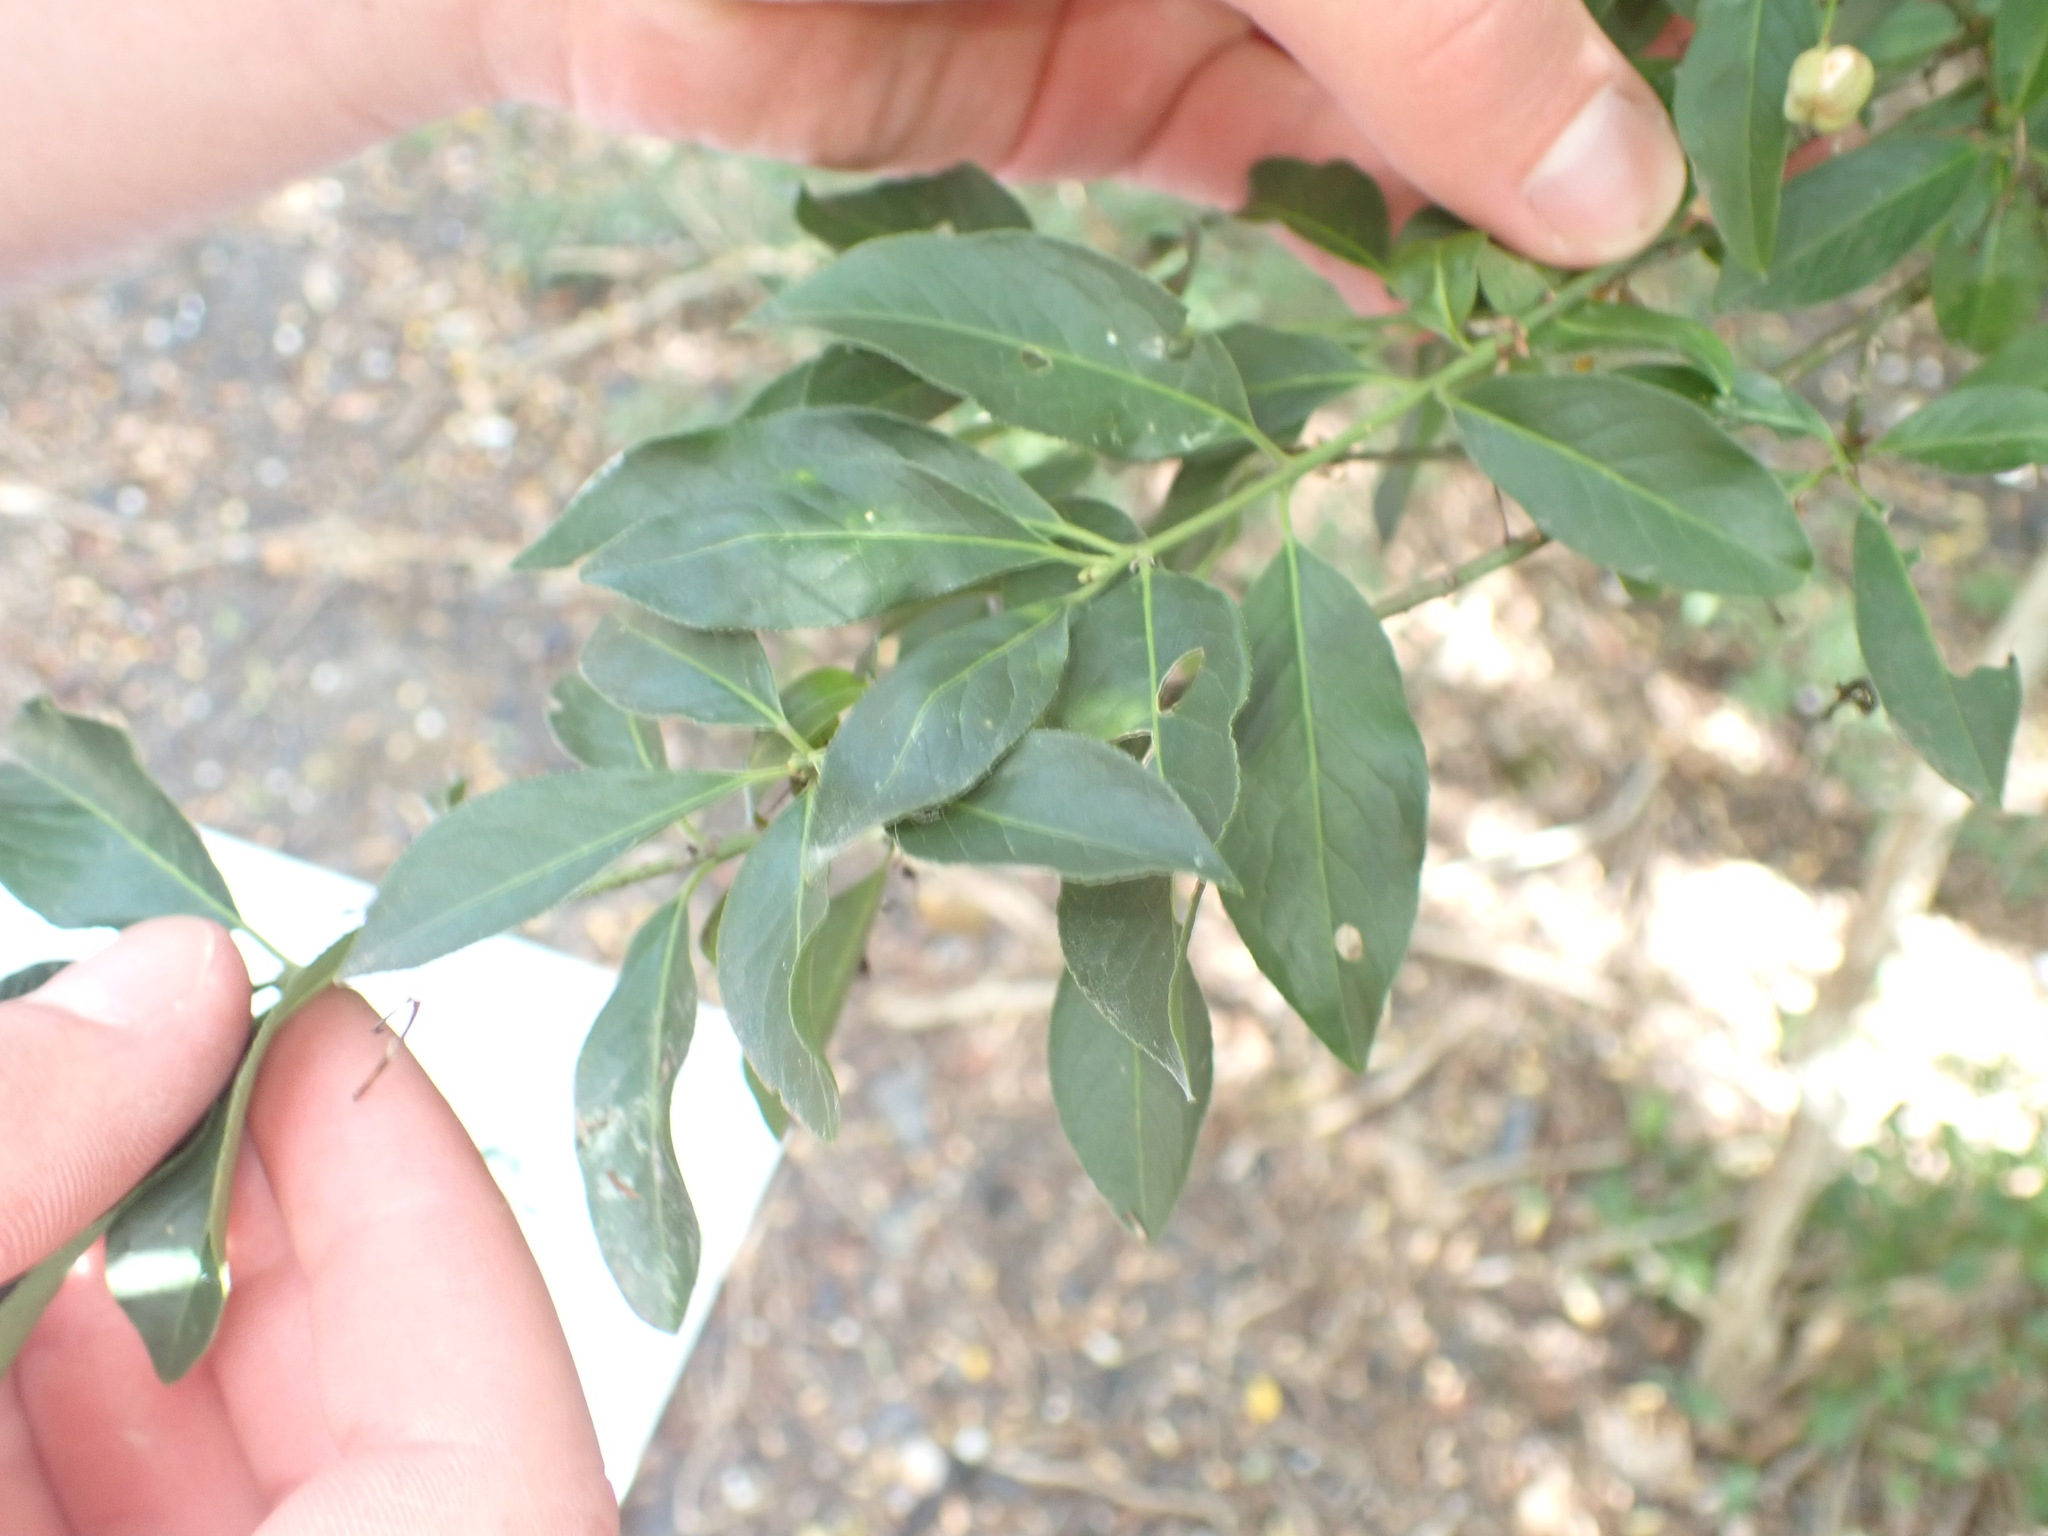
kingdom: Plantae
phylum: Tracheophyta
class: Magnoliopsida
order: Celastrales
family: Celastraceae
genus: Euonymus
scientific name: Euonymus europaeus
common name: Spindle
